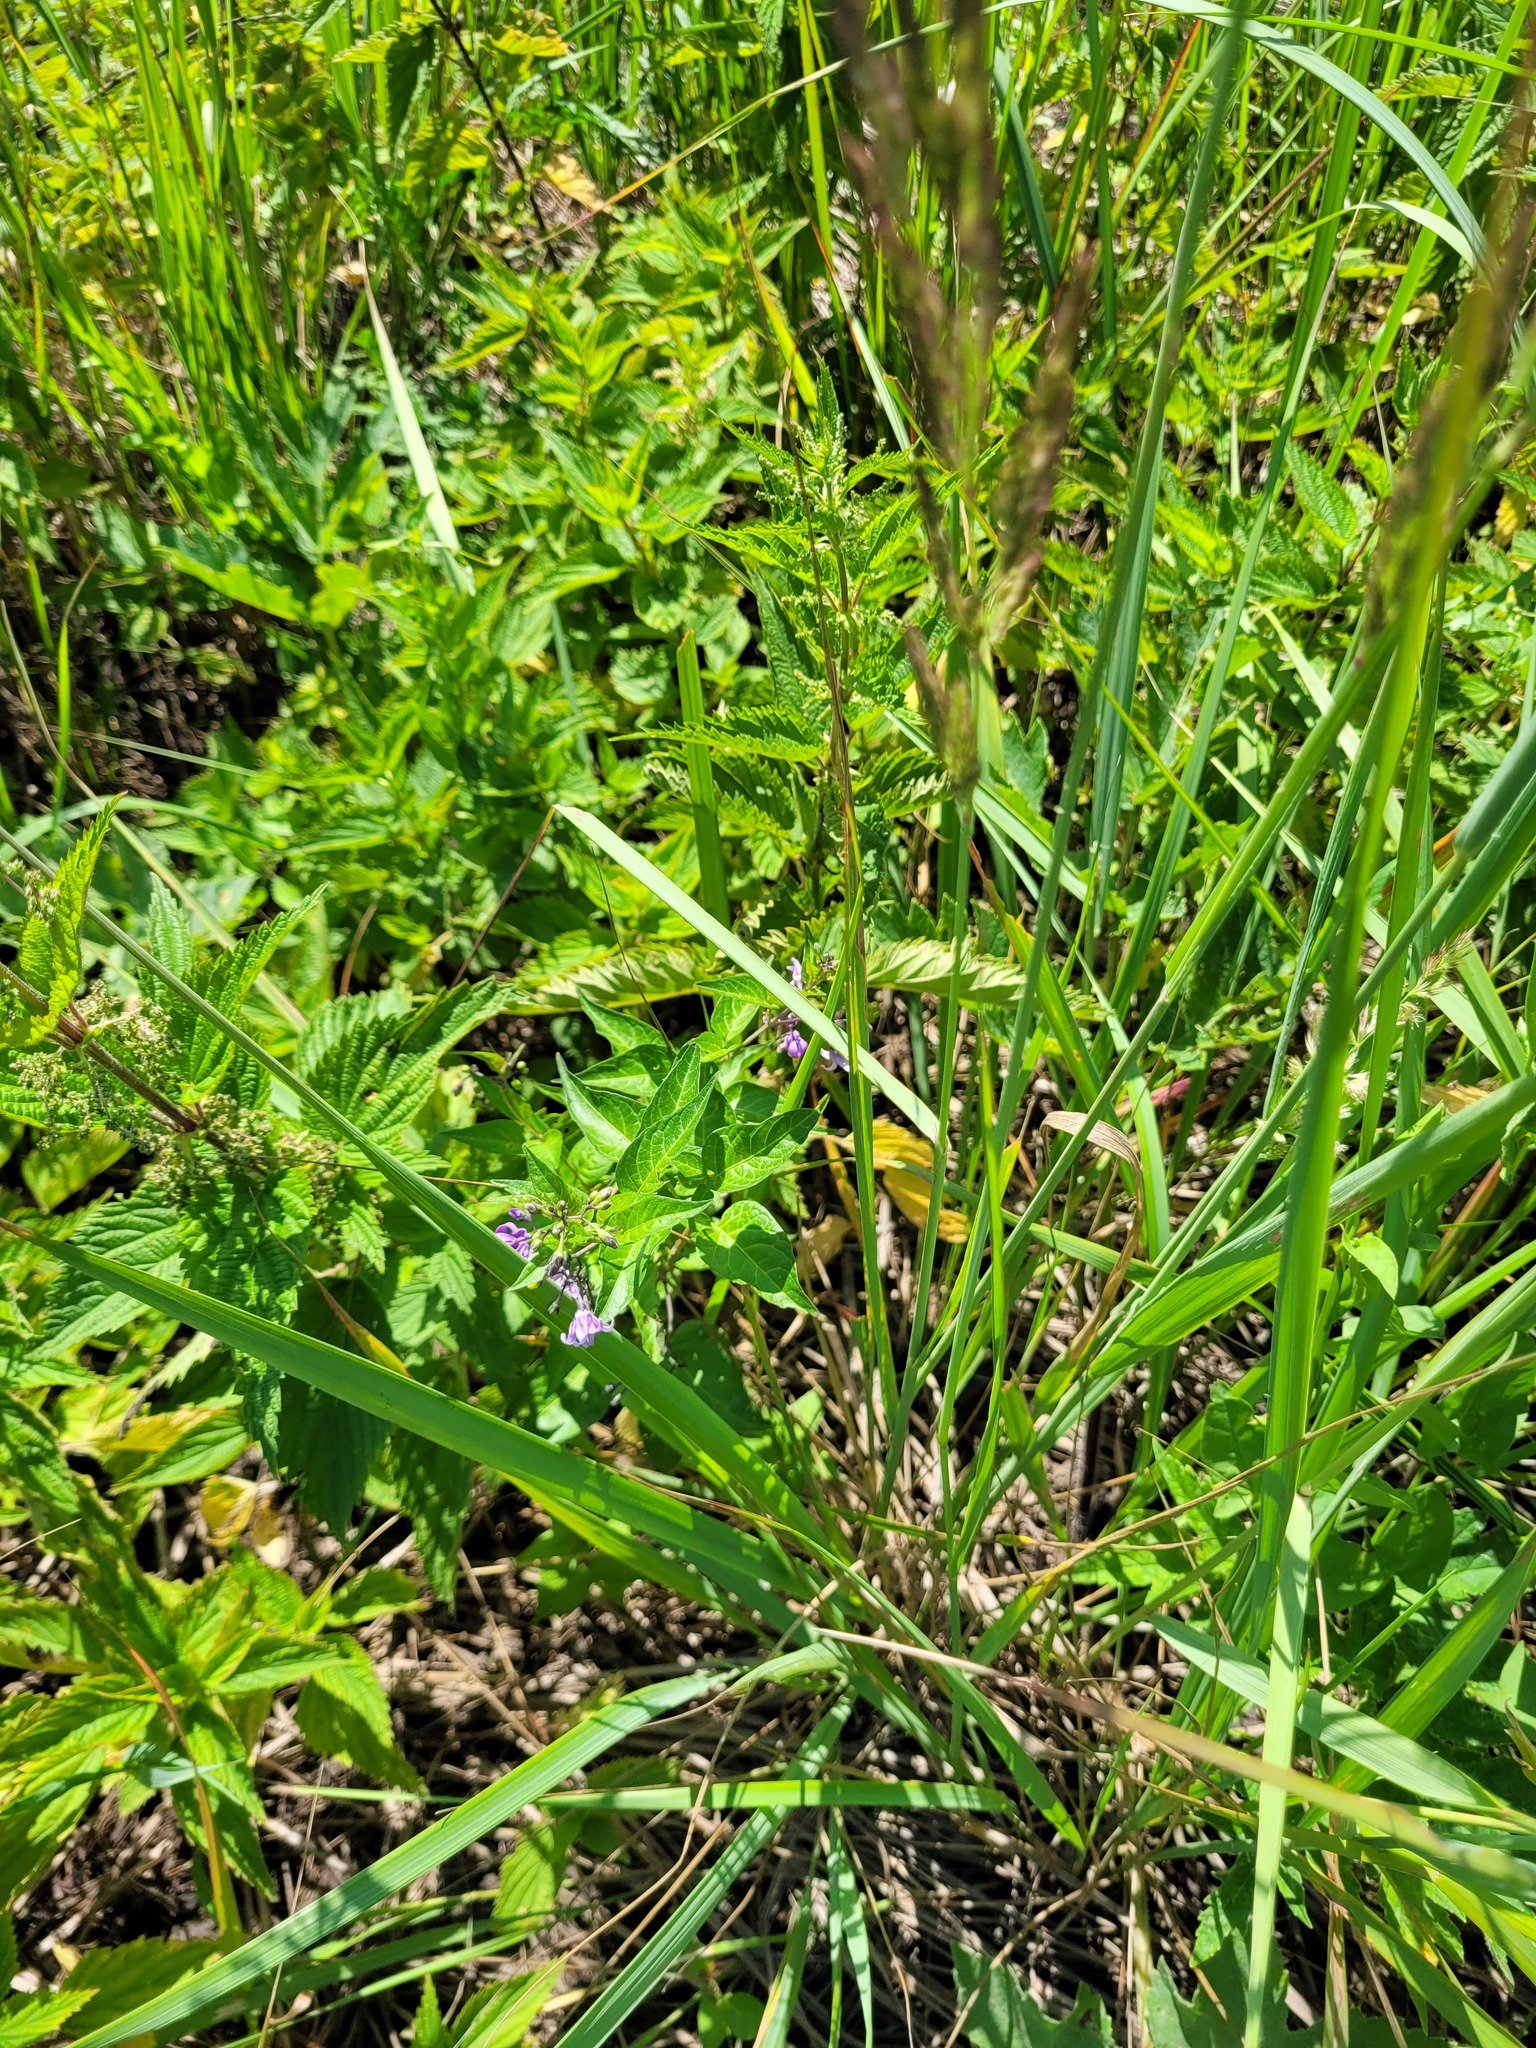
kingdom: Plantae
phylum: Tracheophyta
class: Magnoliopsida
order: Solanales
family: Solanaceae
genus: Solanum
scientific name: Solanum dulcamara
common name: Climbing nightshade
